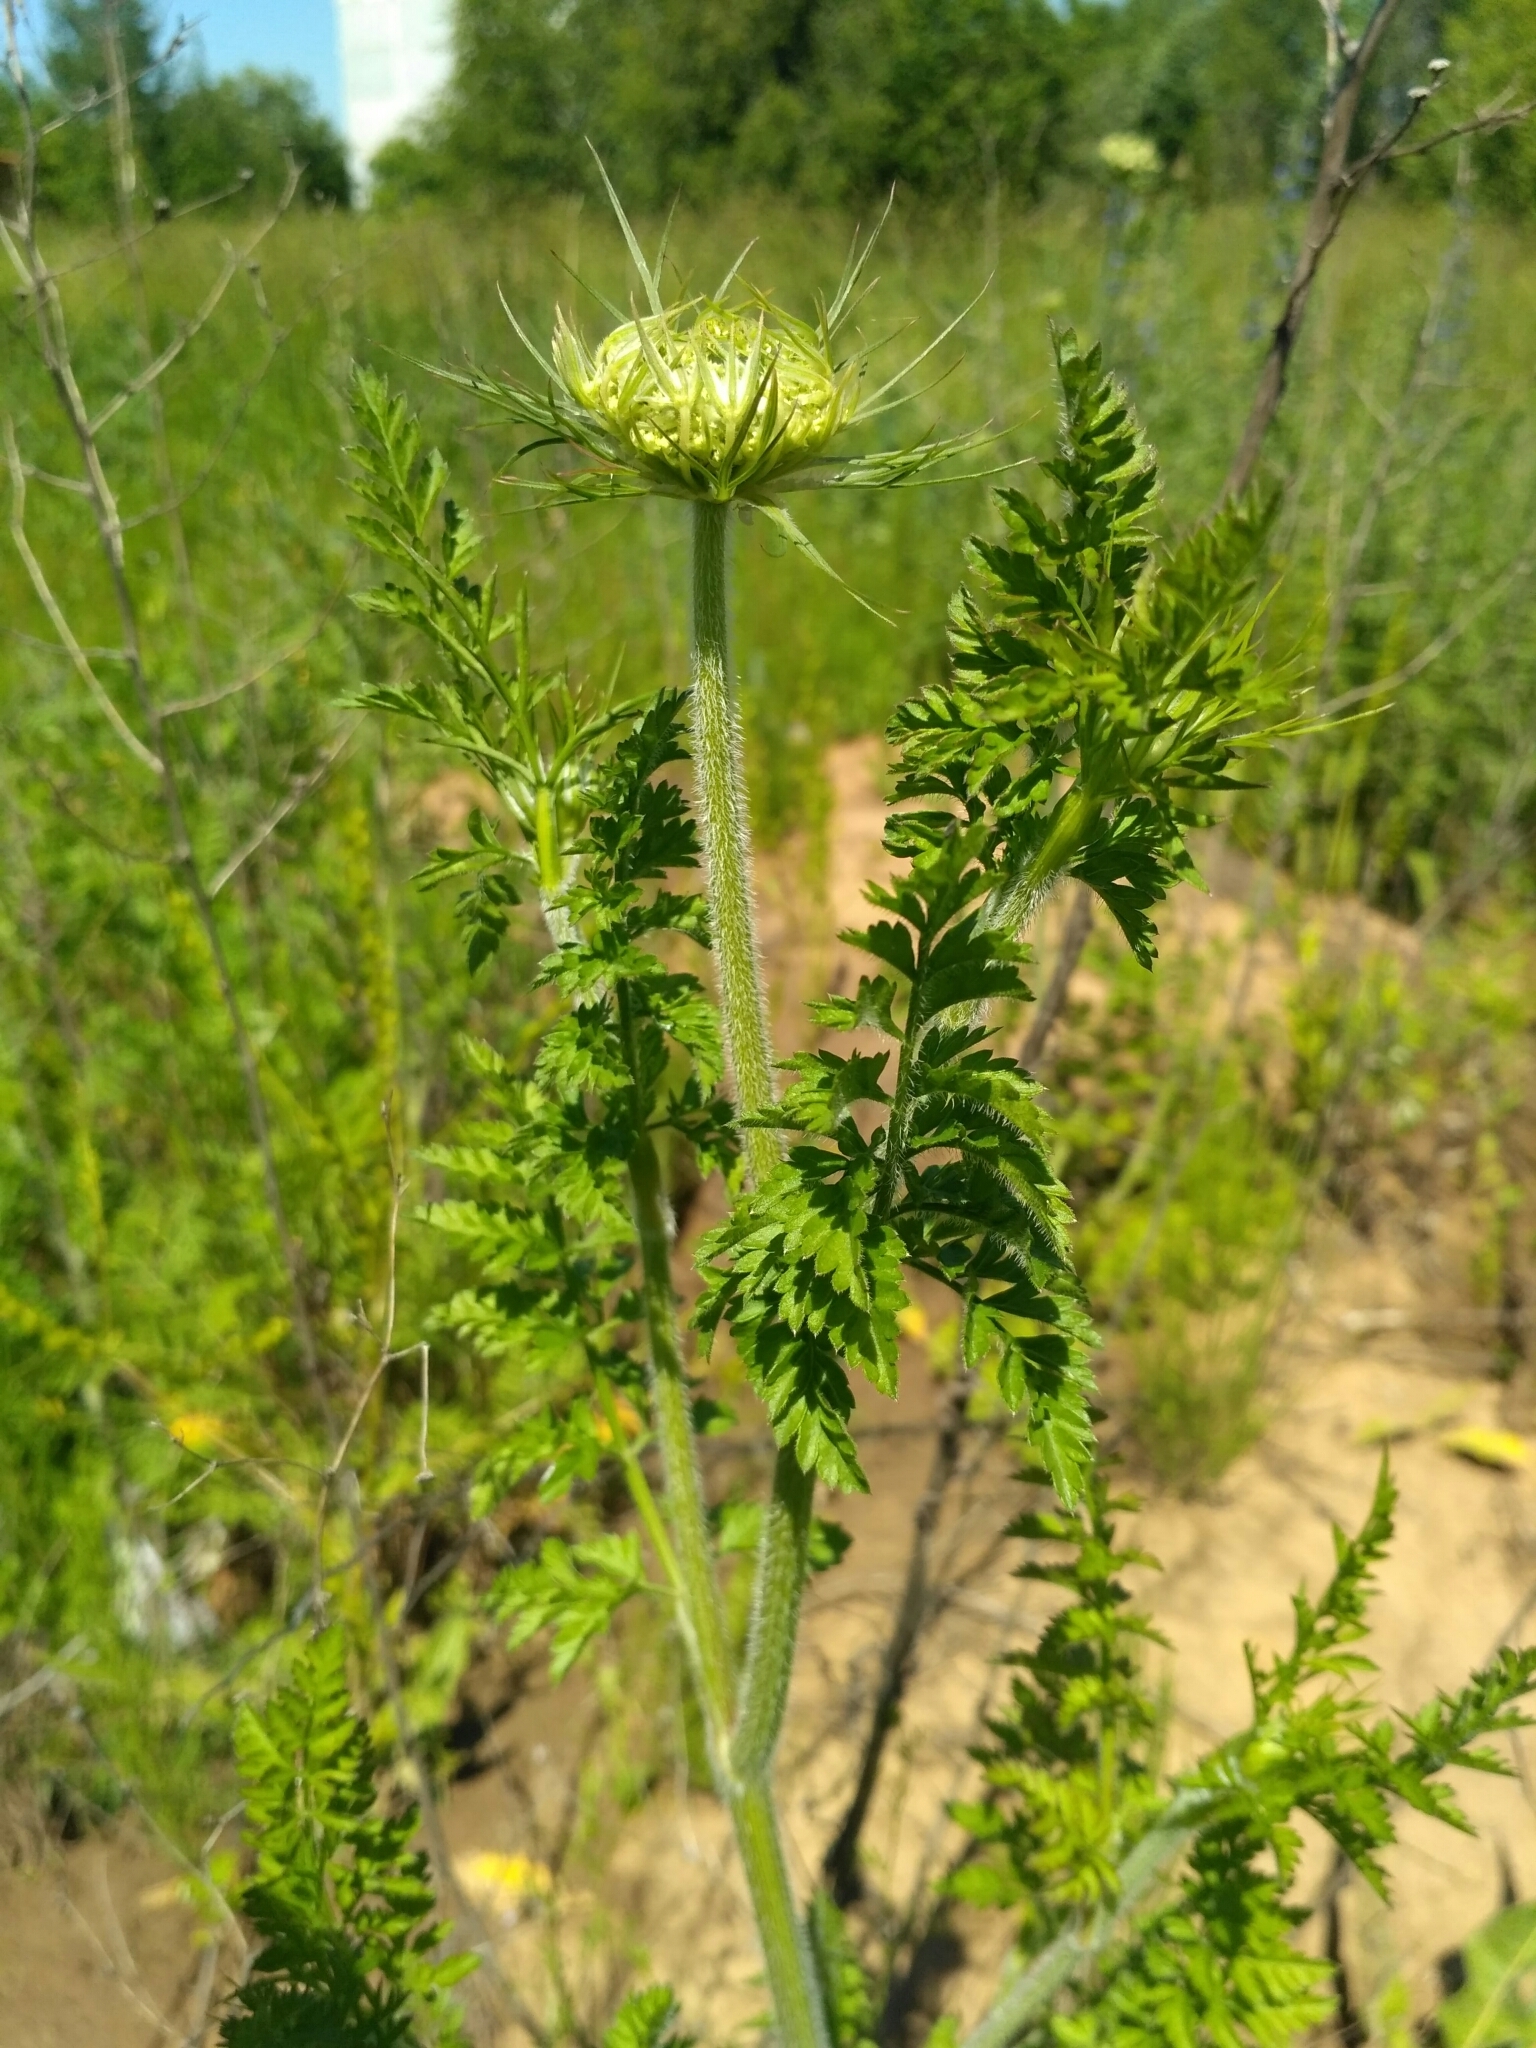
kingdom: Plantae
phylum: Tracheophyta
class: Magnoliopsida
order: Apiales
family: Apiaceae
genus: Daucus
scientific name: Daucus carota
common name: Wild carrot
